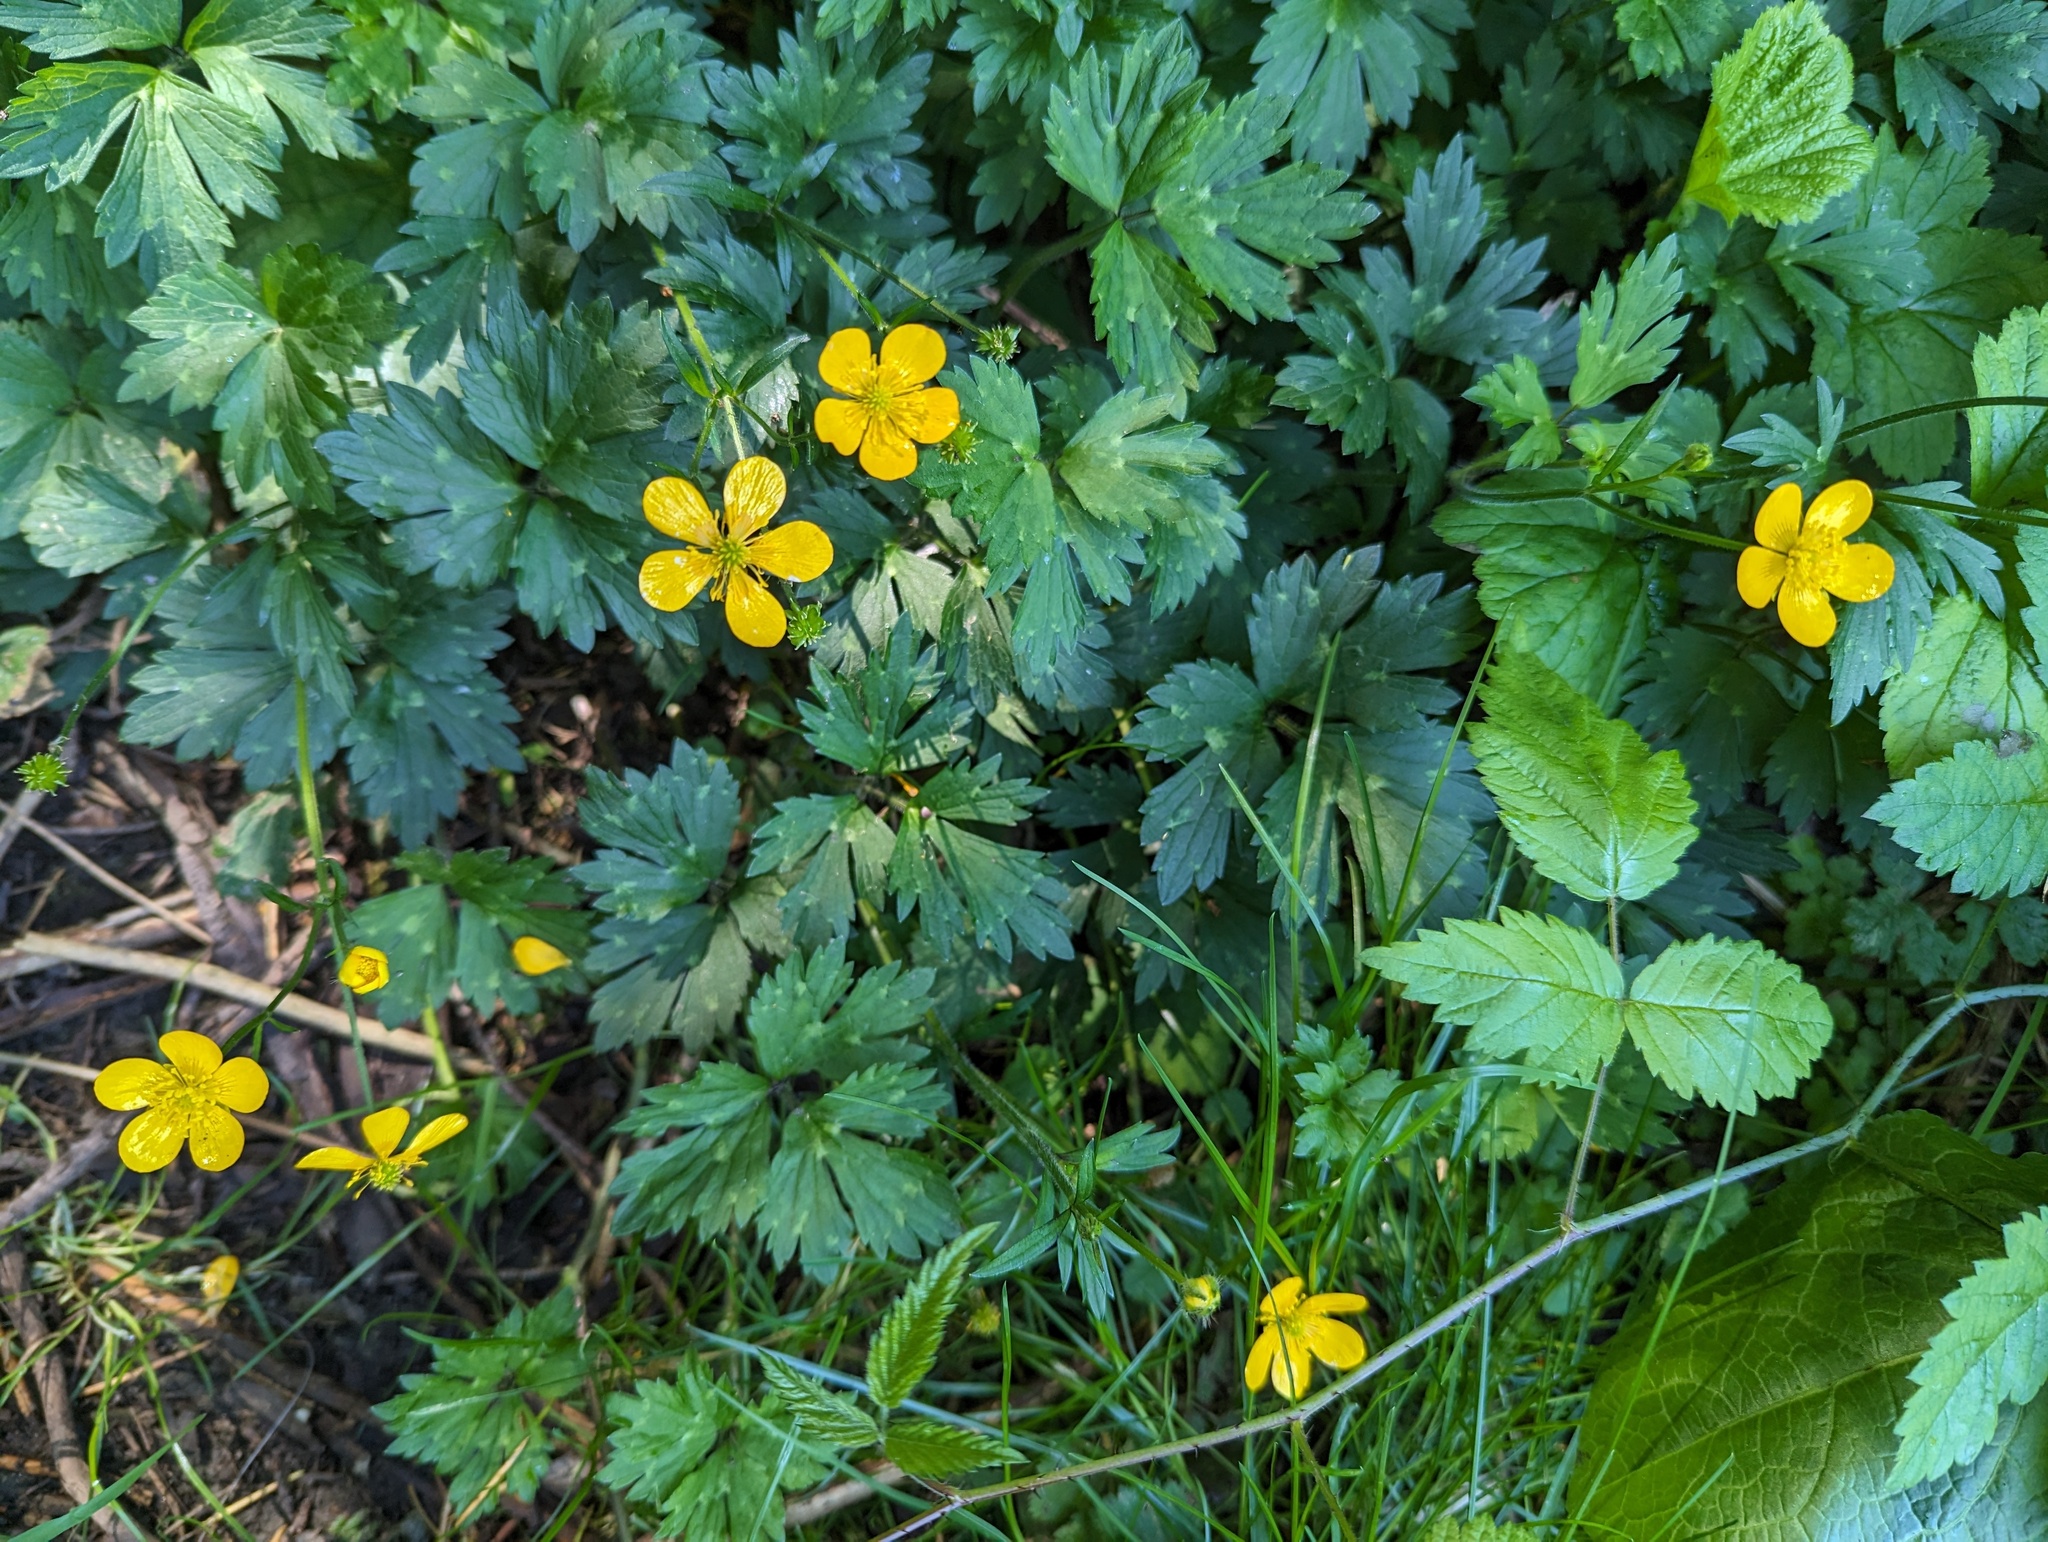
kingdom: Plantae
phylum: Tracheophyta
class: Magnoliopsida
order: Ranunculales
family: Ranunculaceae
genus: Ranunculus
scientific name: Ranunculus repens
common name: Creeping buttercup
